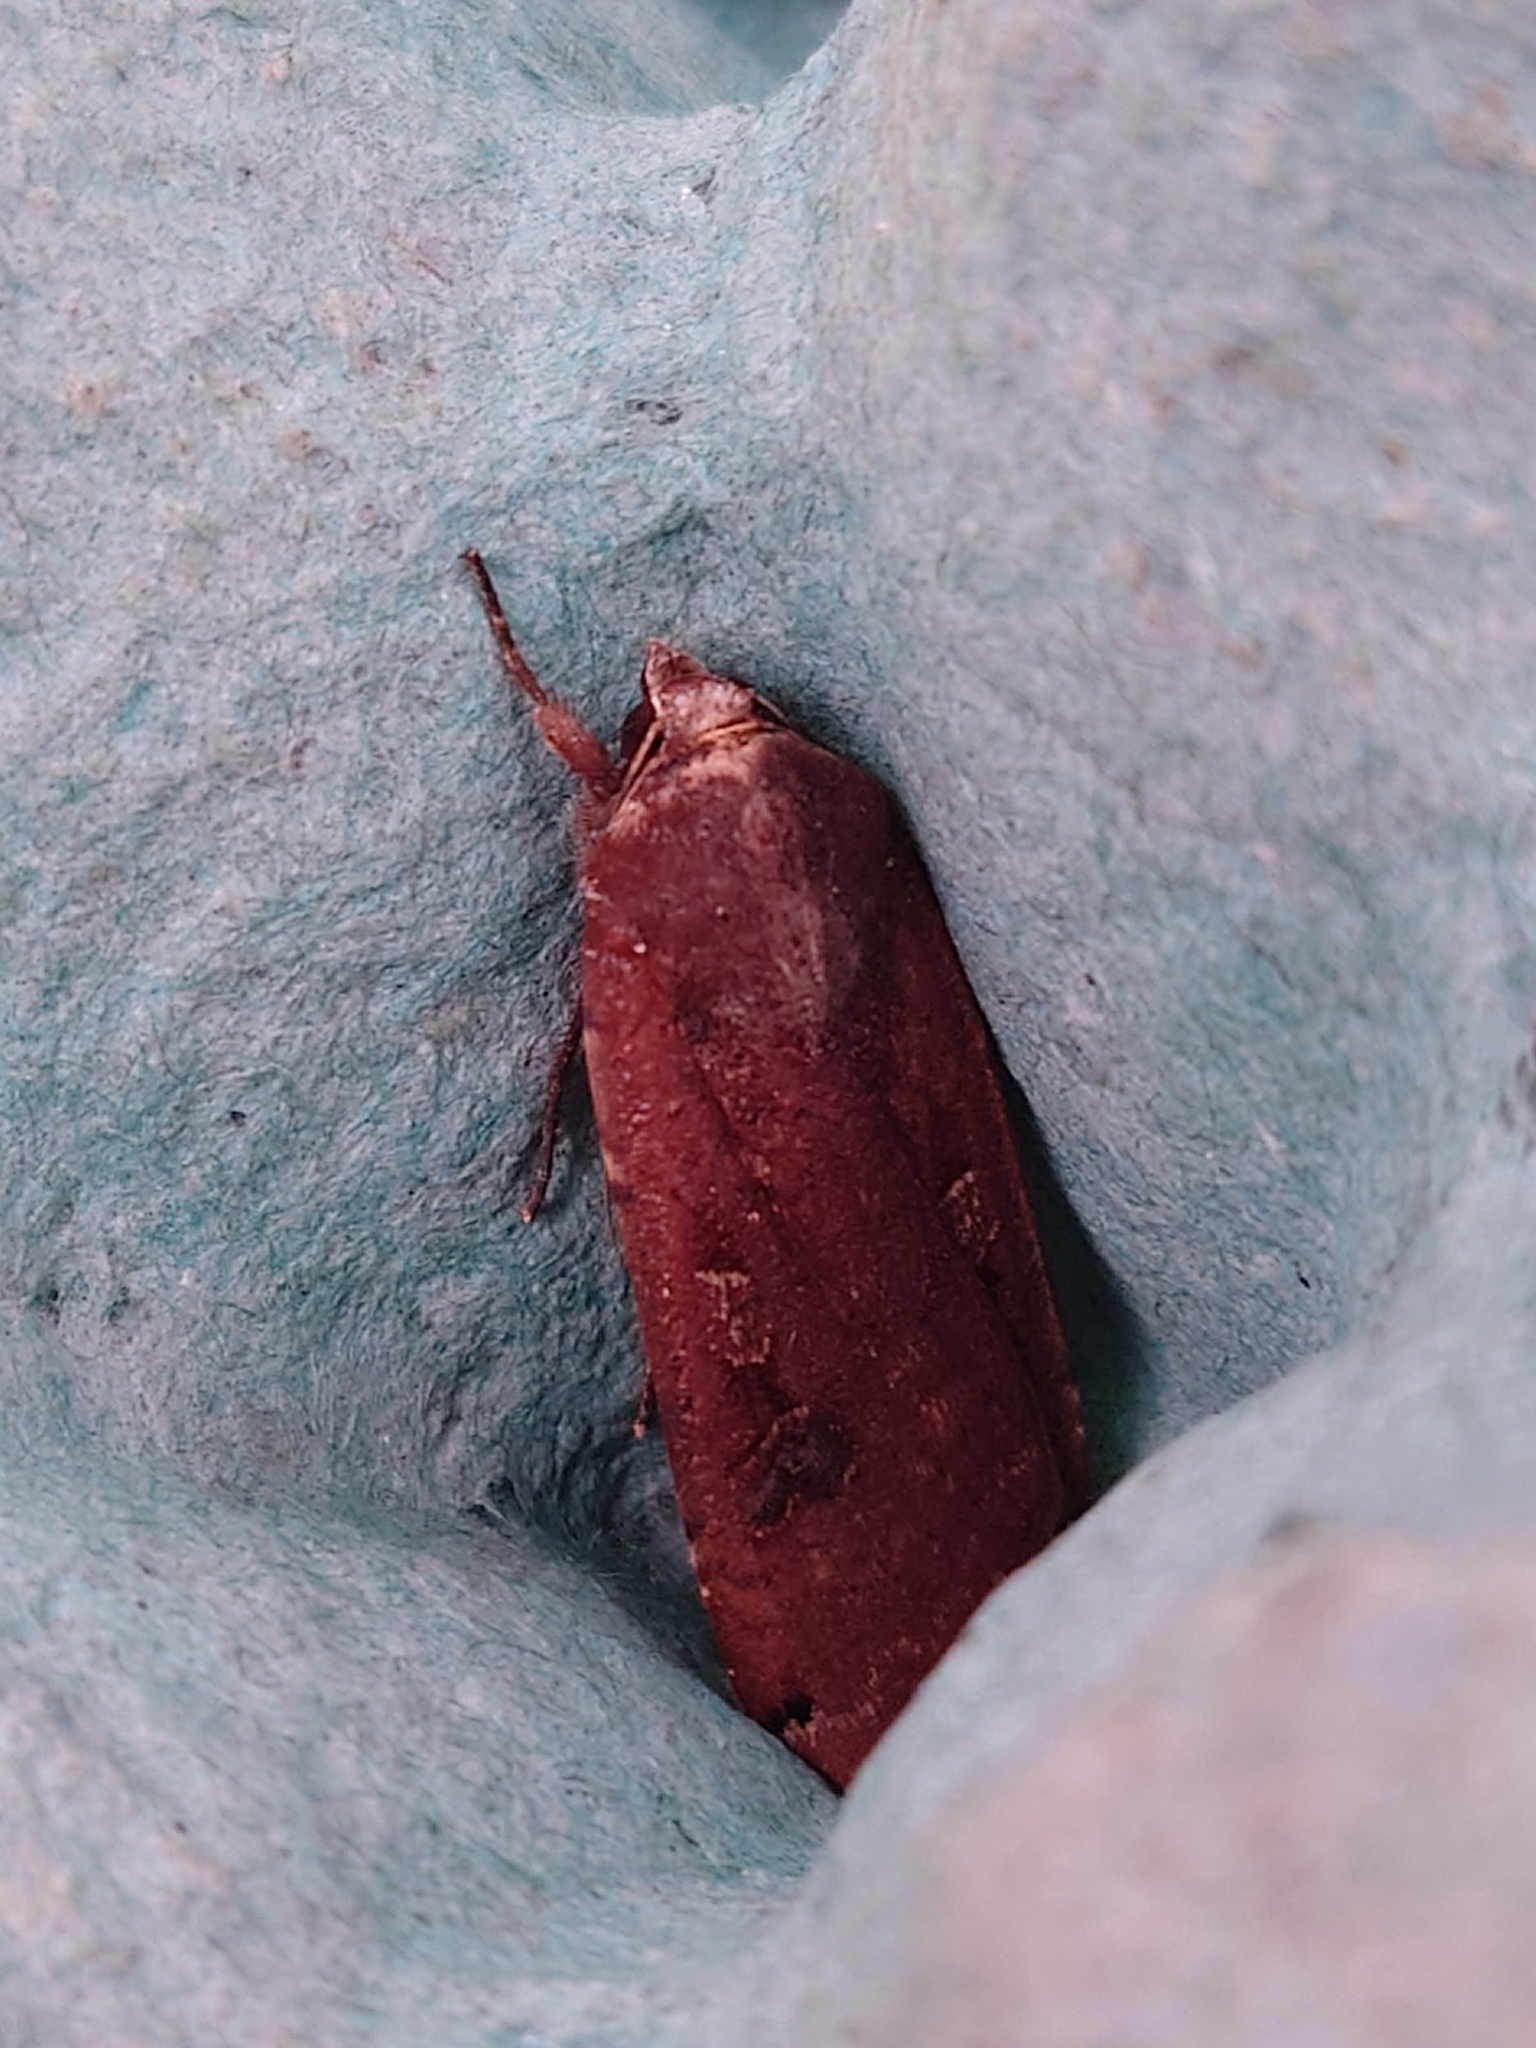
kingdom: Animalia
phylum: Arthropoda
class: Insecta
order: Lepidoptera
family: Noctuidae
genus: Noctua
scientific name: Noctua pronuba
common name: Large yellow underwing
